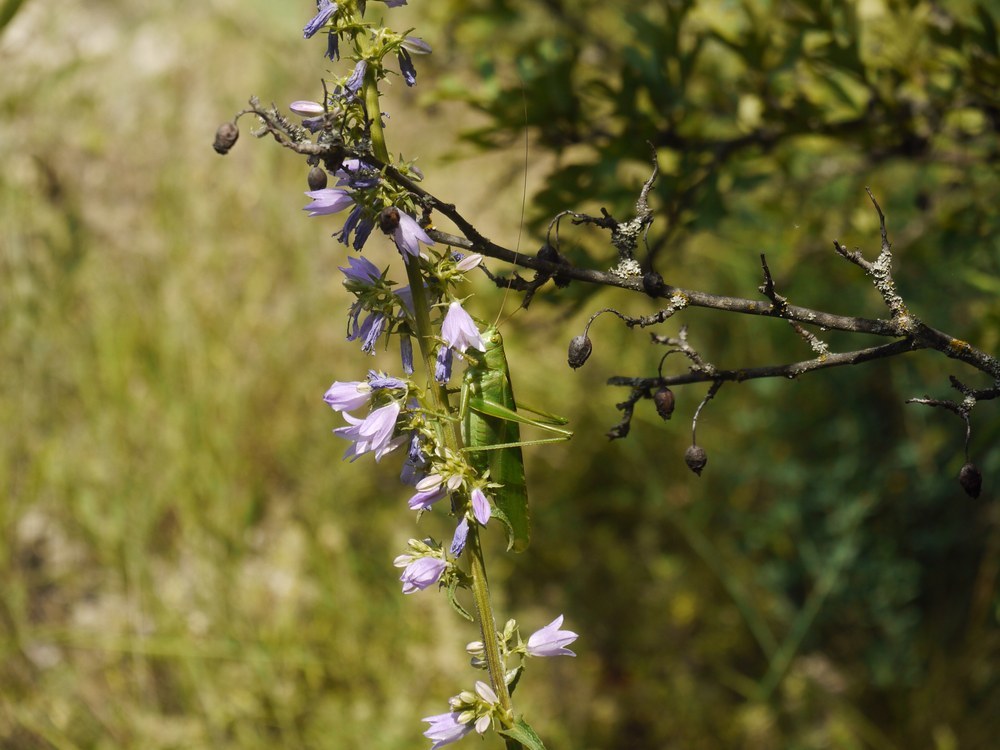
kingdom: Animalia
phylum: Arthropoda
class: Insecta
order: Orthoptera
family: Tettigoniidae
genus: Tettigonia
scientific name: Tettigonia viridissima
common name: Great green bush-cricket
